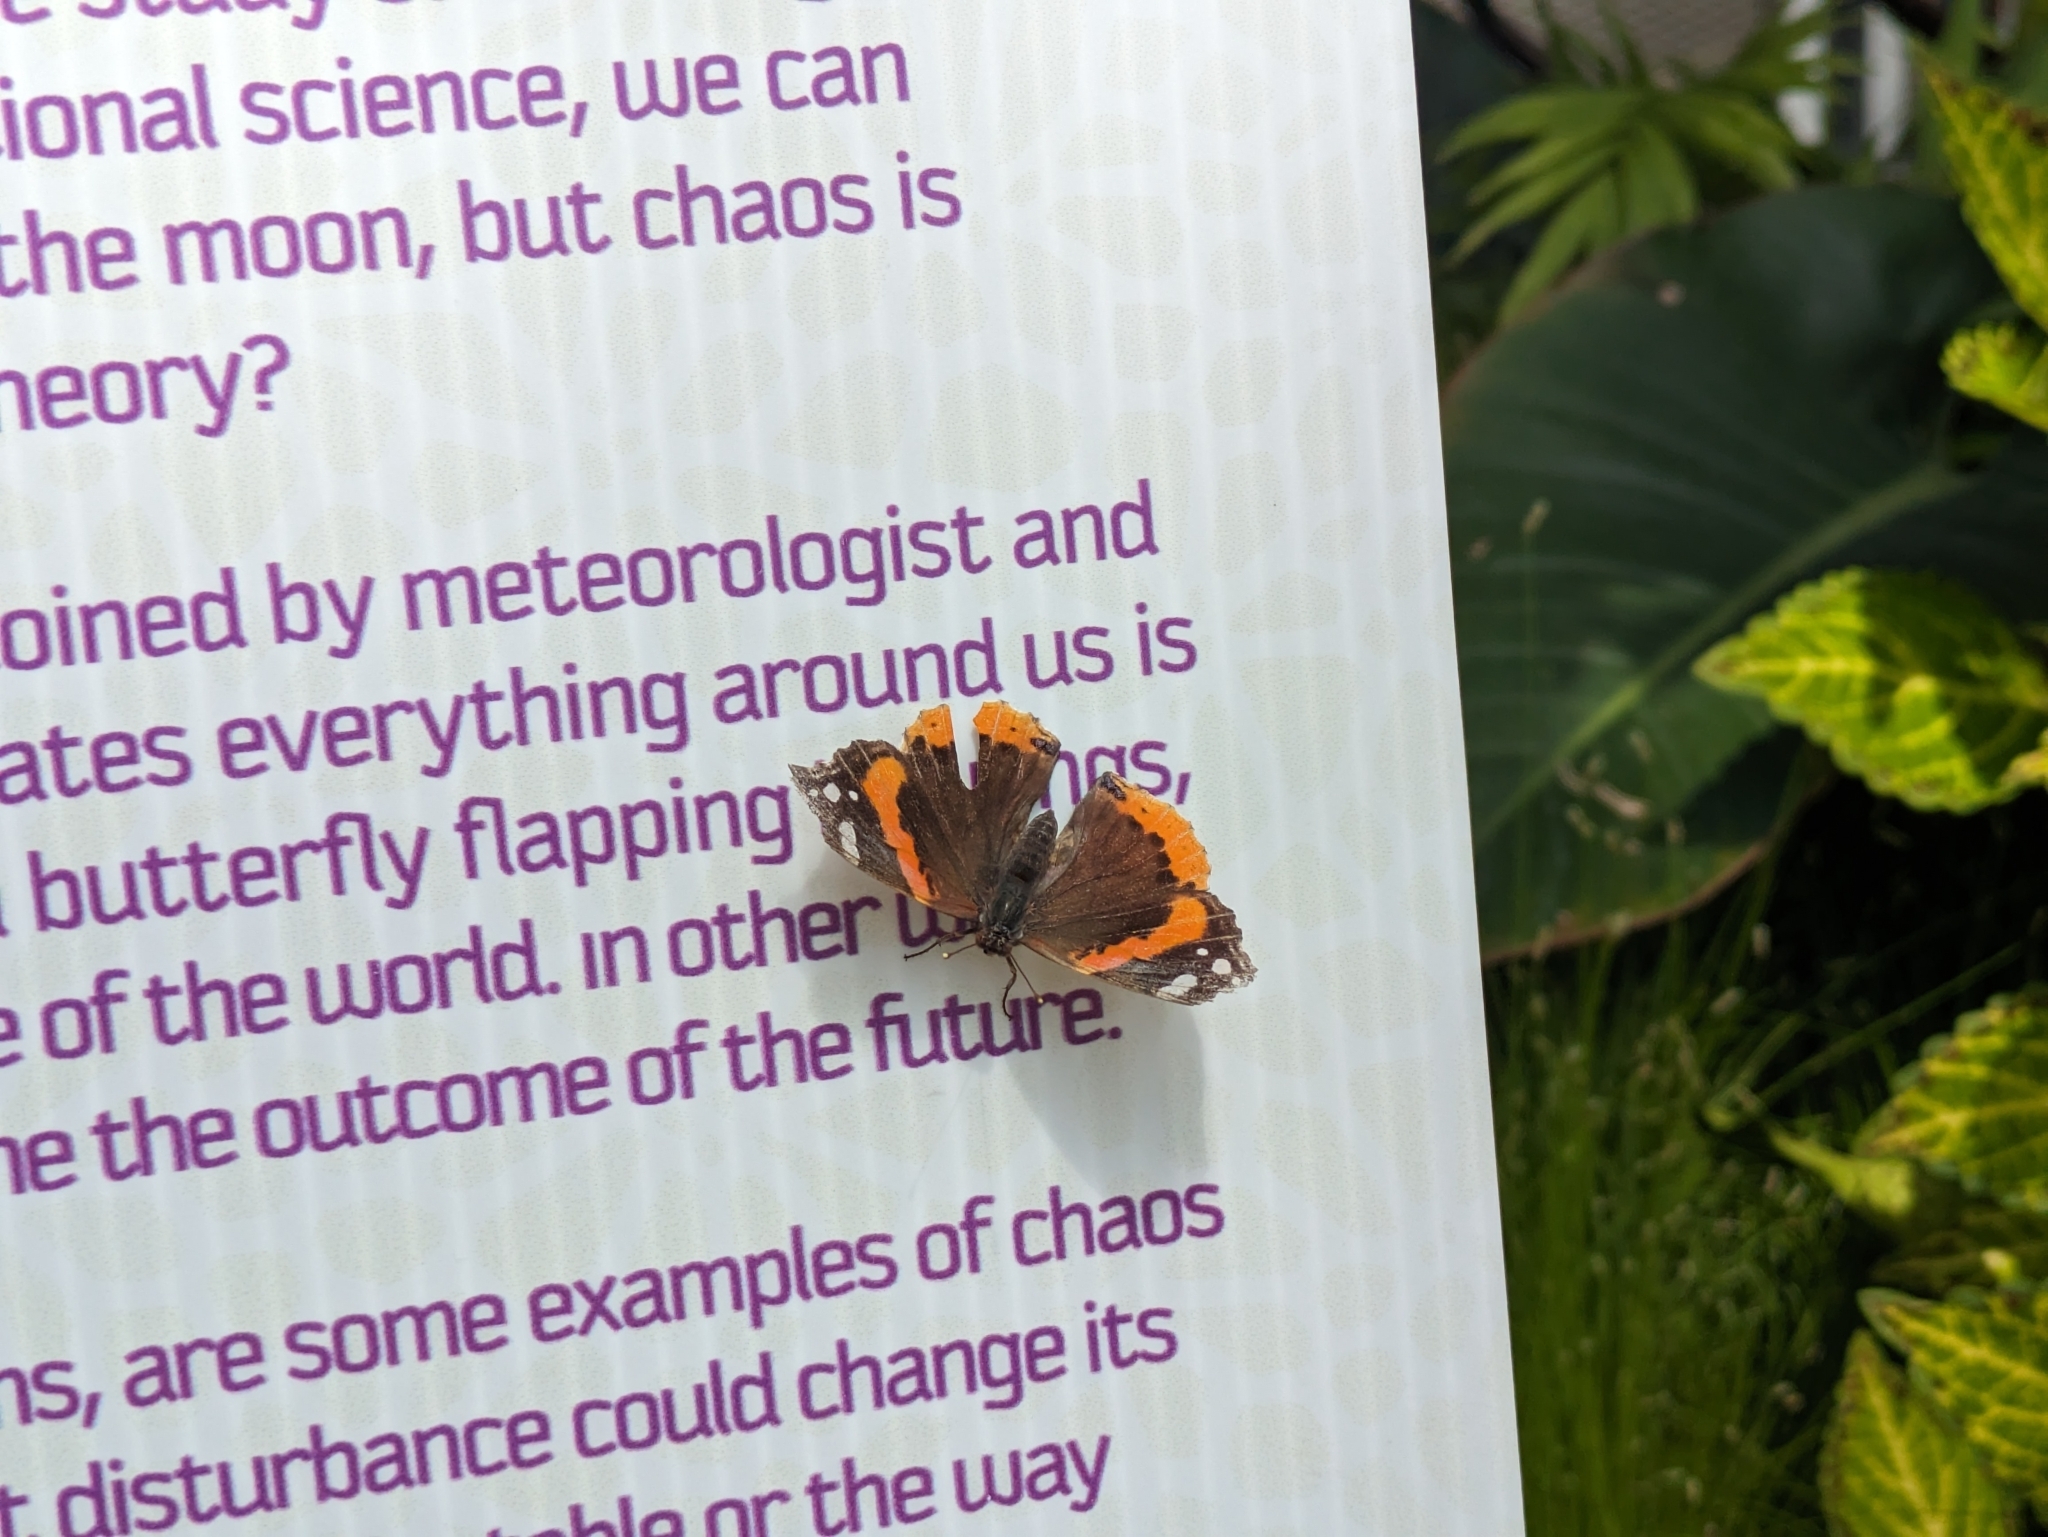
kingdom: Animalia
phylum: Arthropoda
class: Insecta
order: Lepidoptera
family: Nymphalidae
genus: Vanessa
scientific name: Vanessa atalanta
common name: Red admiral
